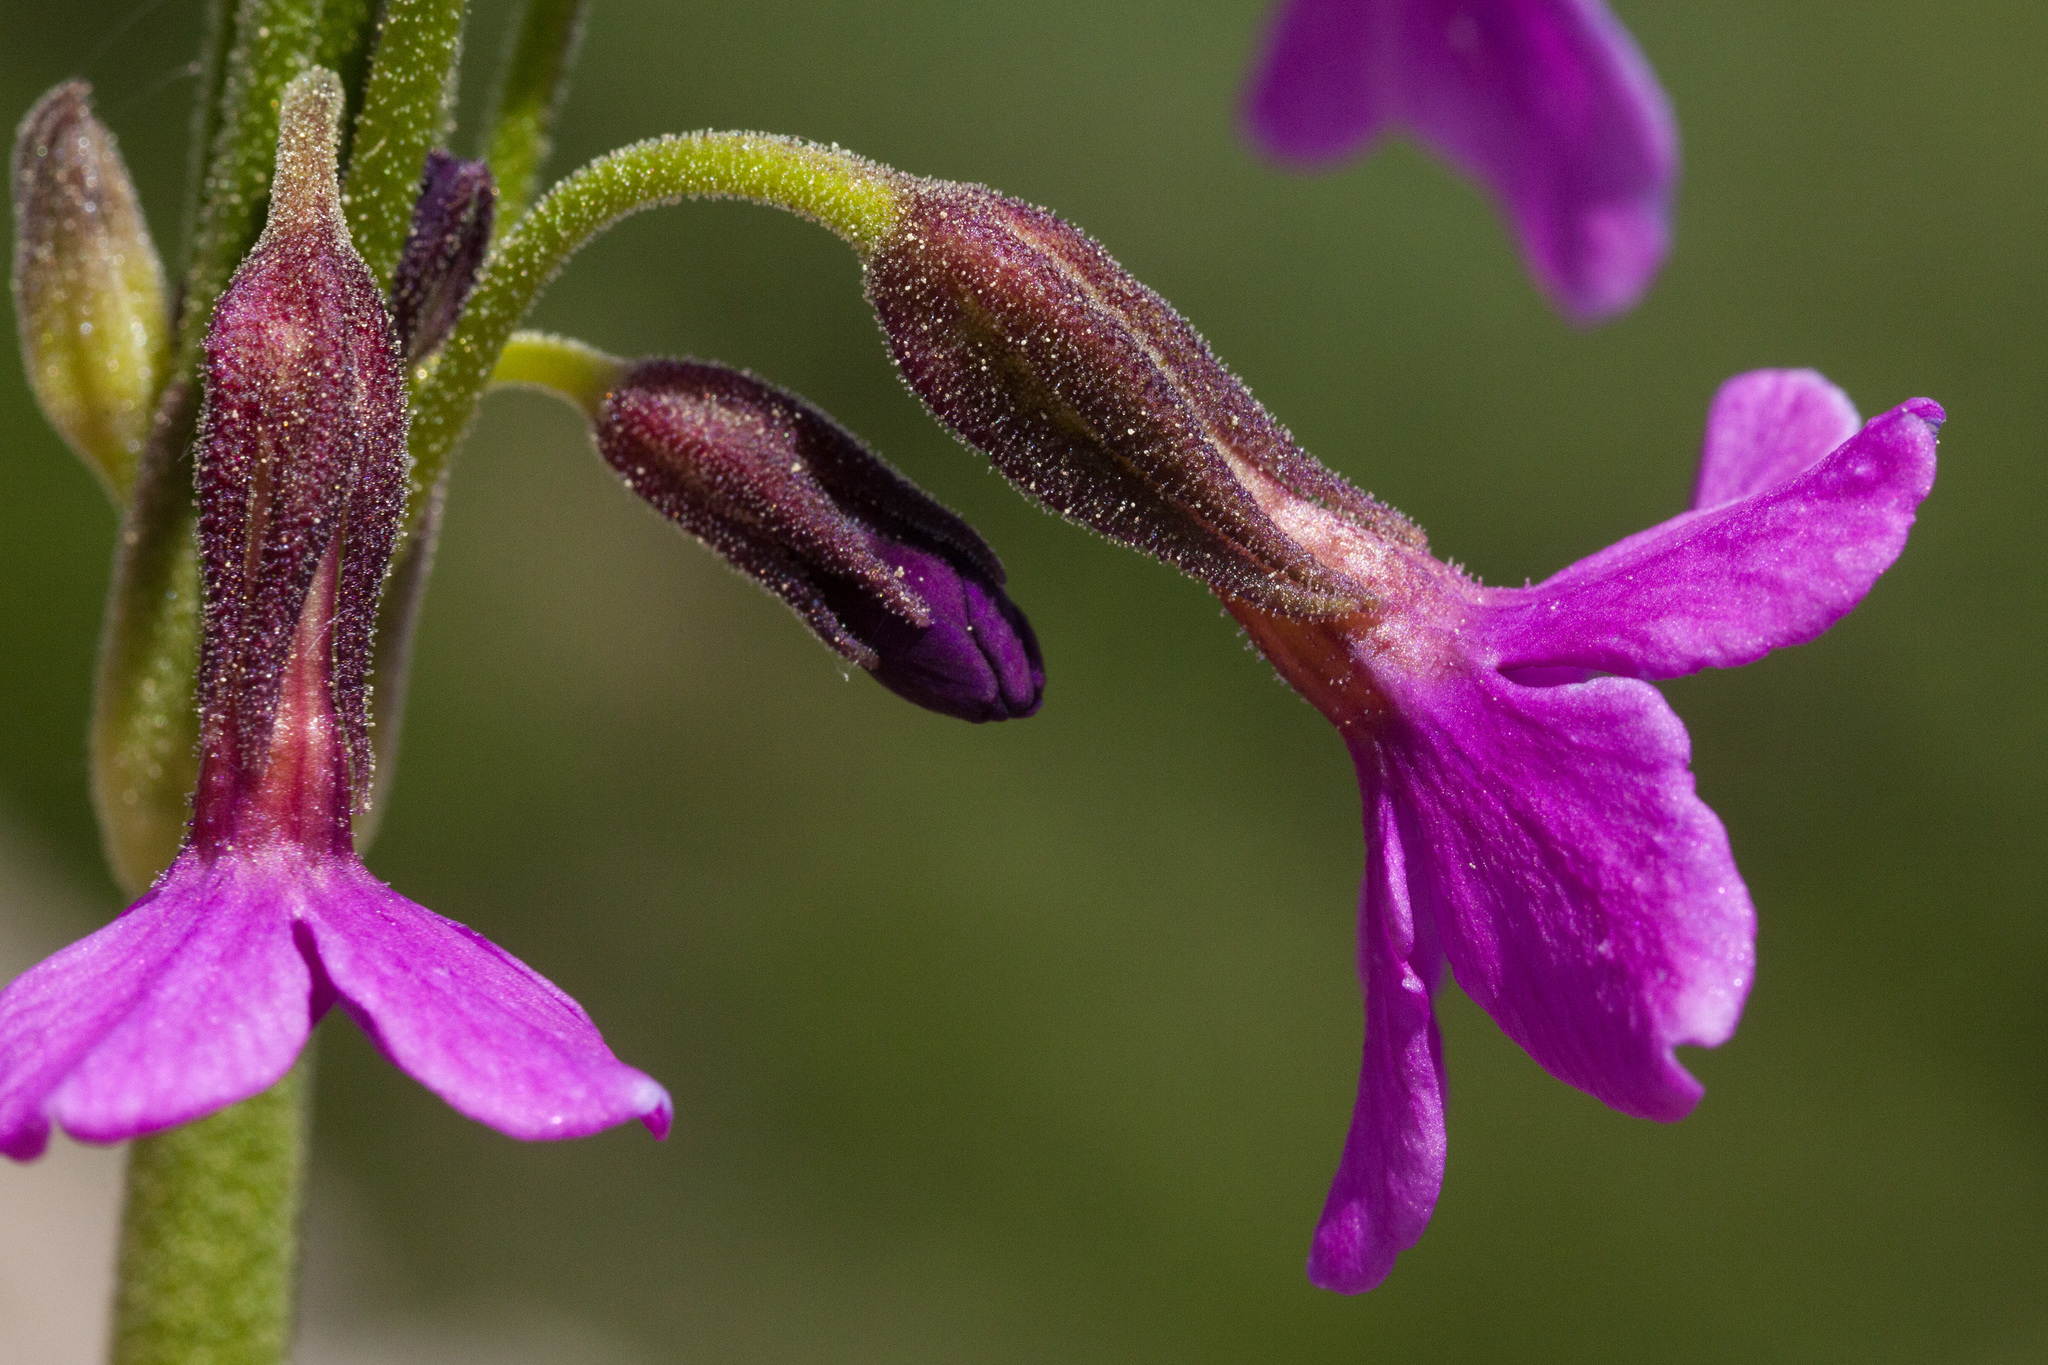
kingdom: Plantae
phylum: Tracheophyta
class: Magnoliopsida
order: Ericales
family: Primulaceae
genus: Primula
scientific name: Primula parryi
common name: Parry's primrose
